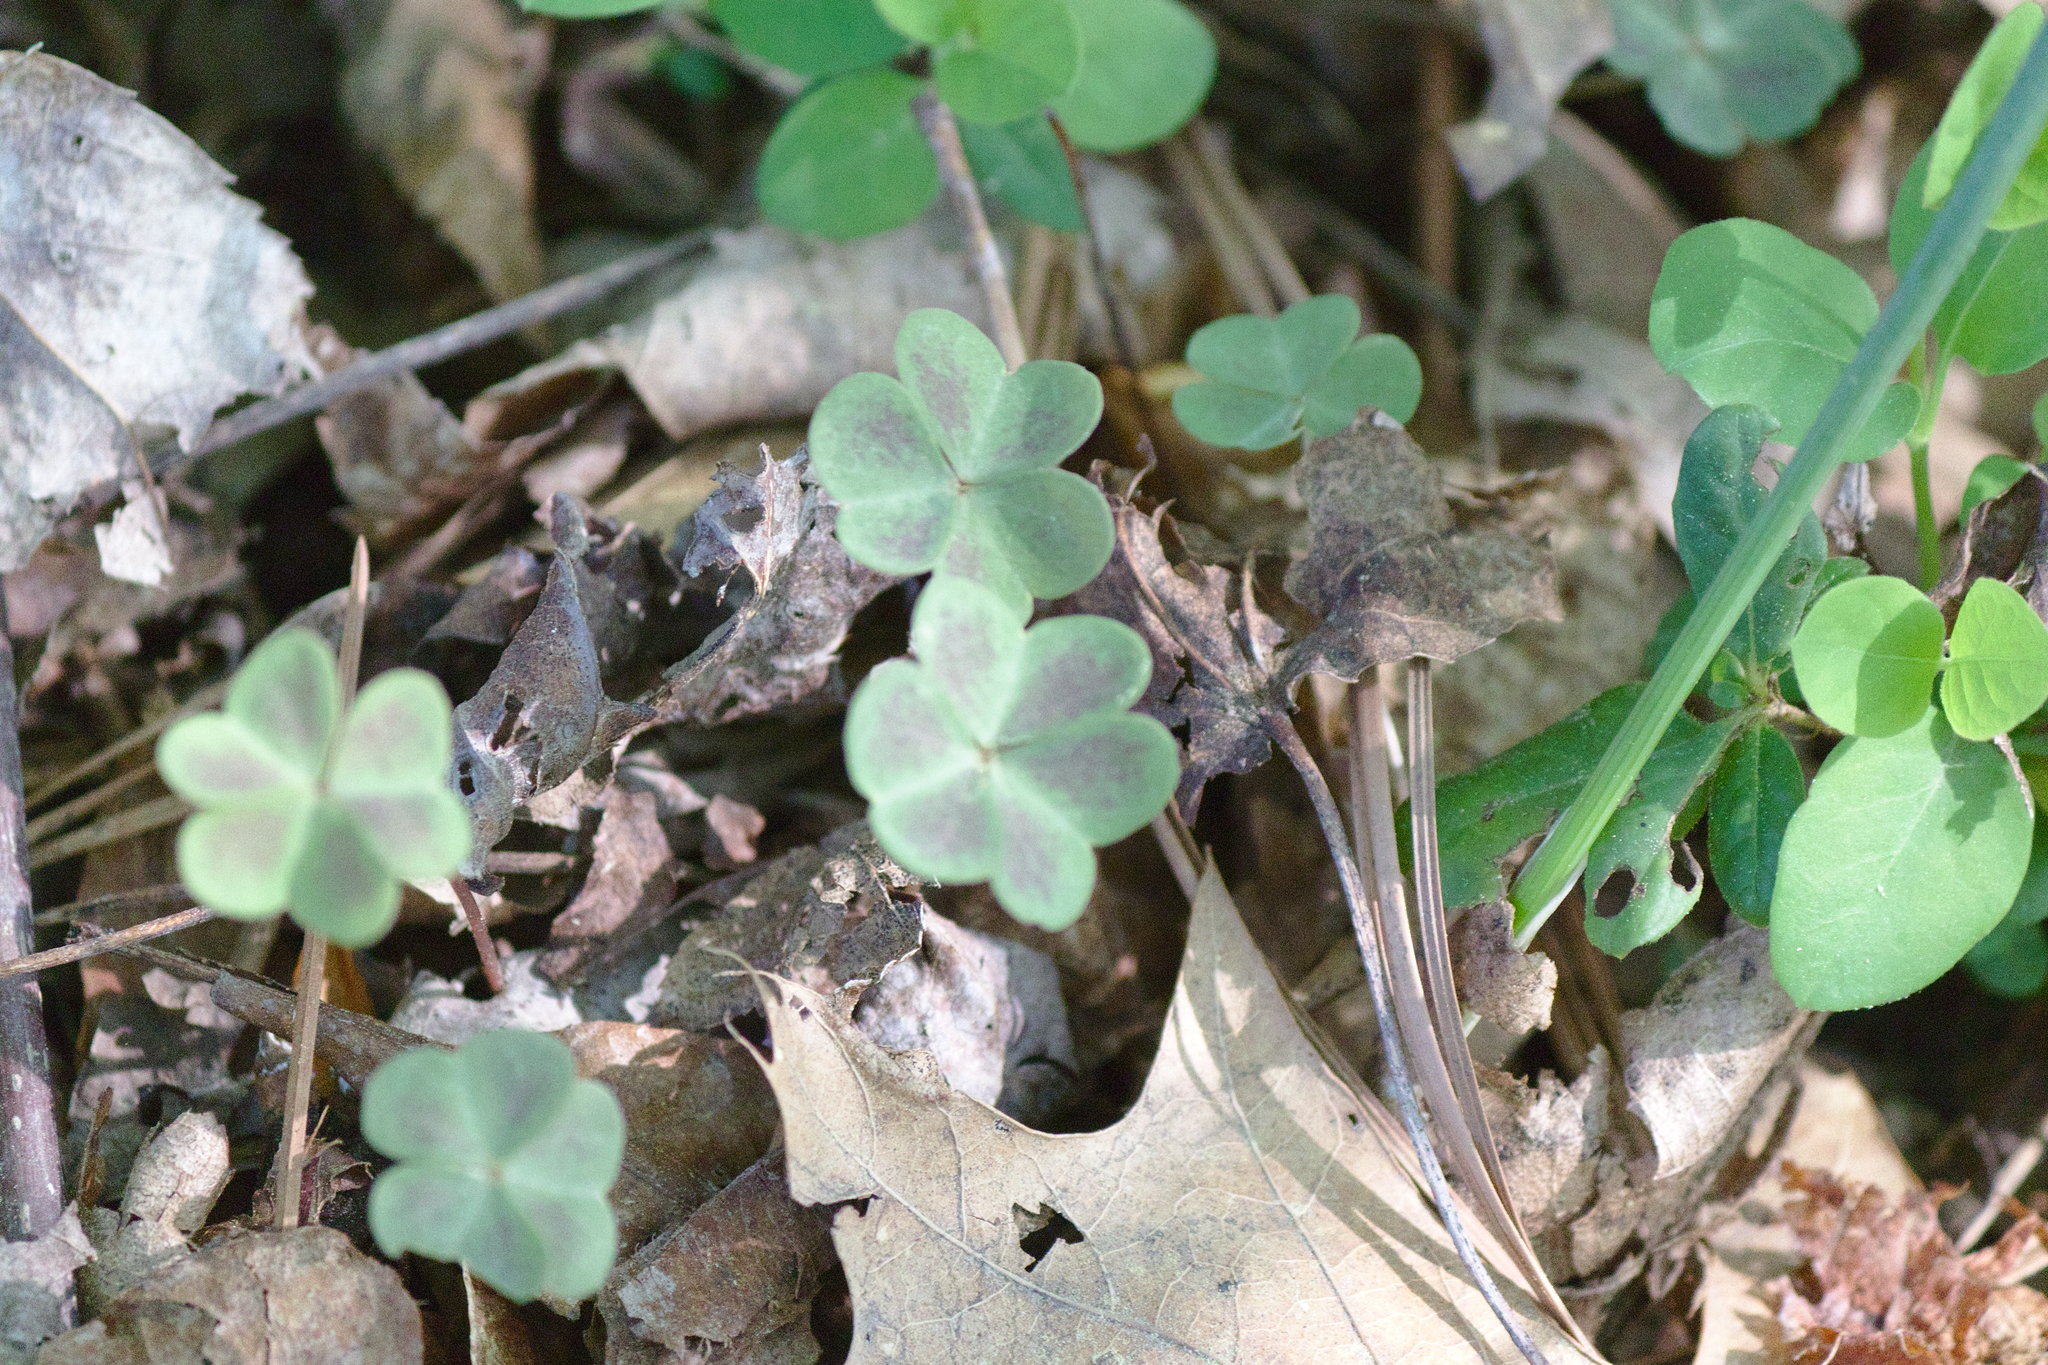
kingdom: Plantae
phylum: Tracheophyta
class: Magnoliopsida
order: Oxalidales
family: Oxalidaceae
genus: Oxalis
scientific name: Oxalis violacea
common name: Violet wood-sorrel
